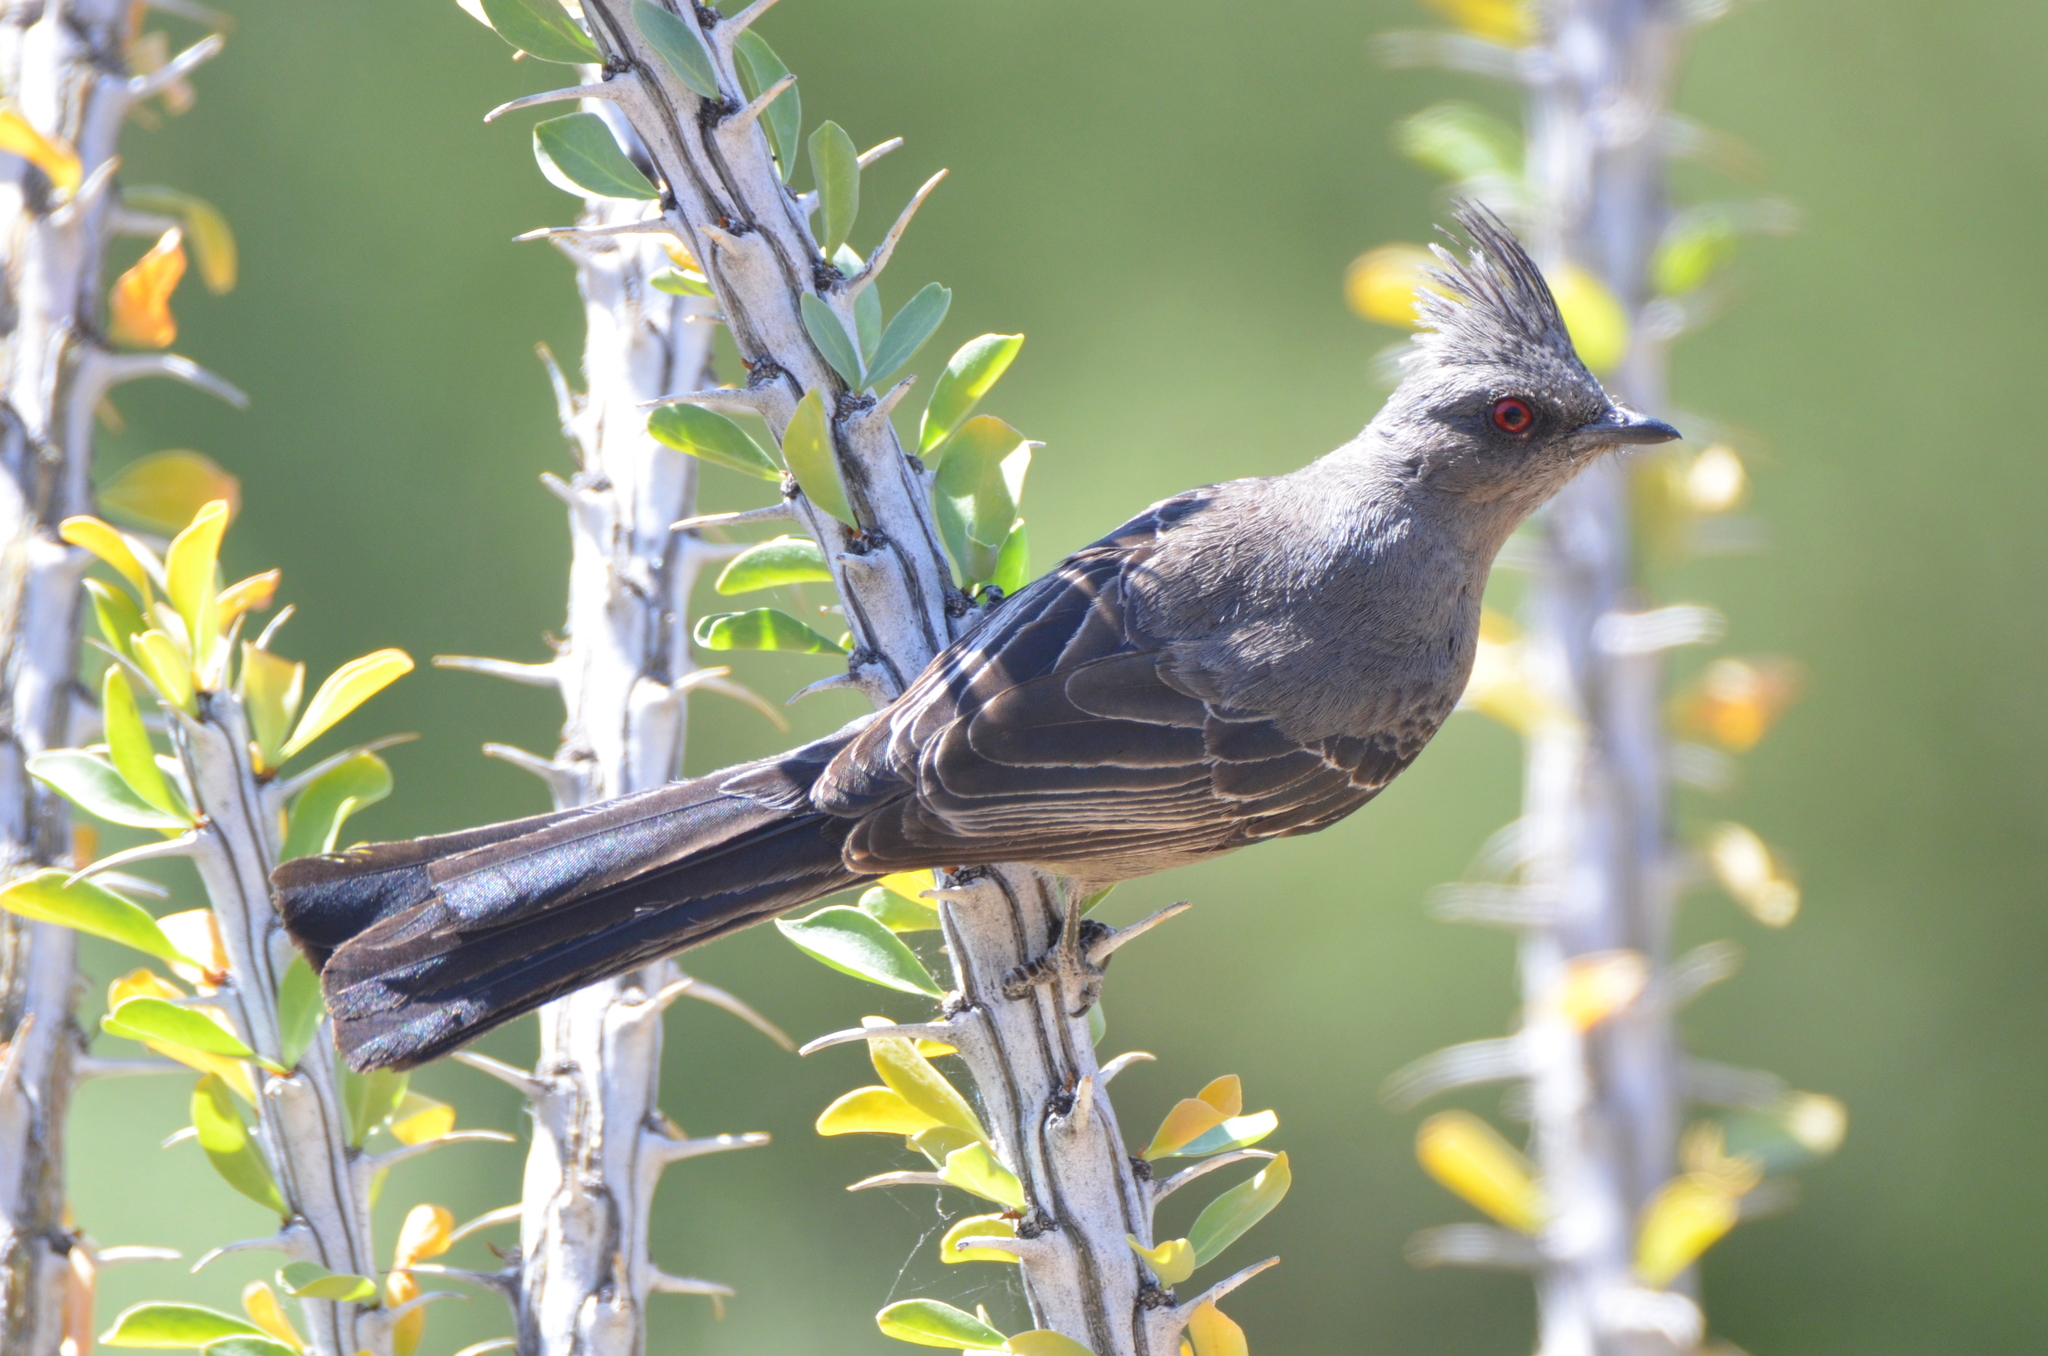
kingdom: Animalia
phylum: Chordata
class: Aves
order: Passeriformes
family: Ptilogonatidae
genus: Phainopepla
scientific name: Phainopepla nitens
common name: Phainopepla
